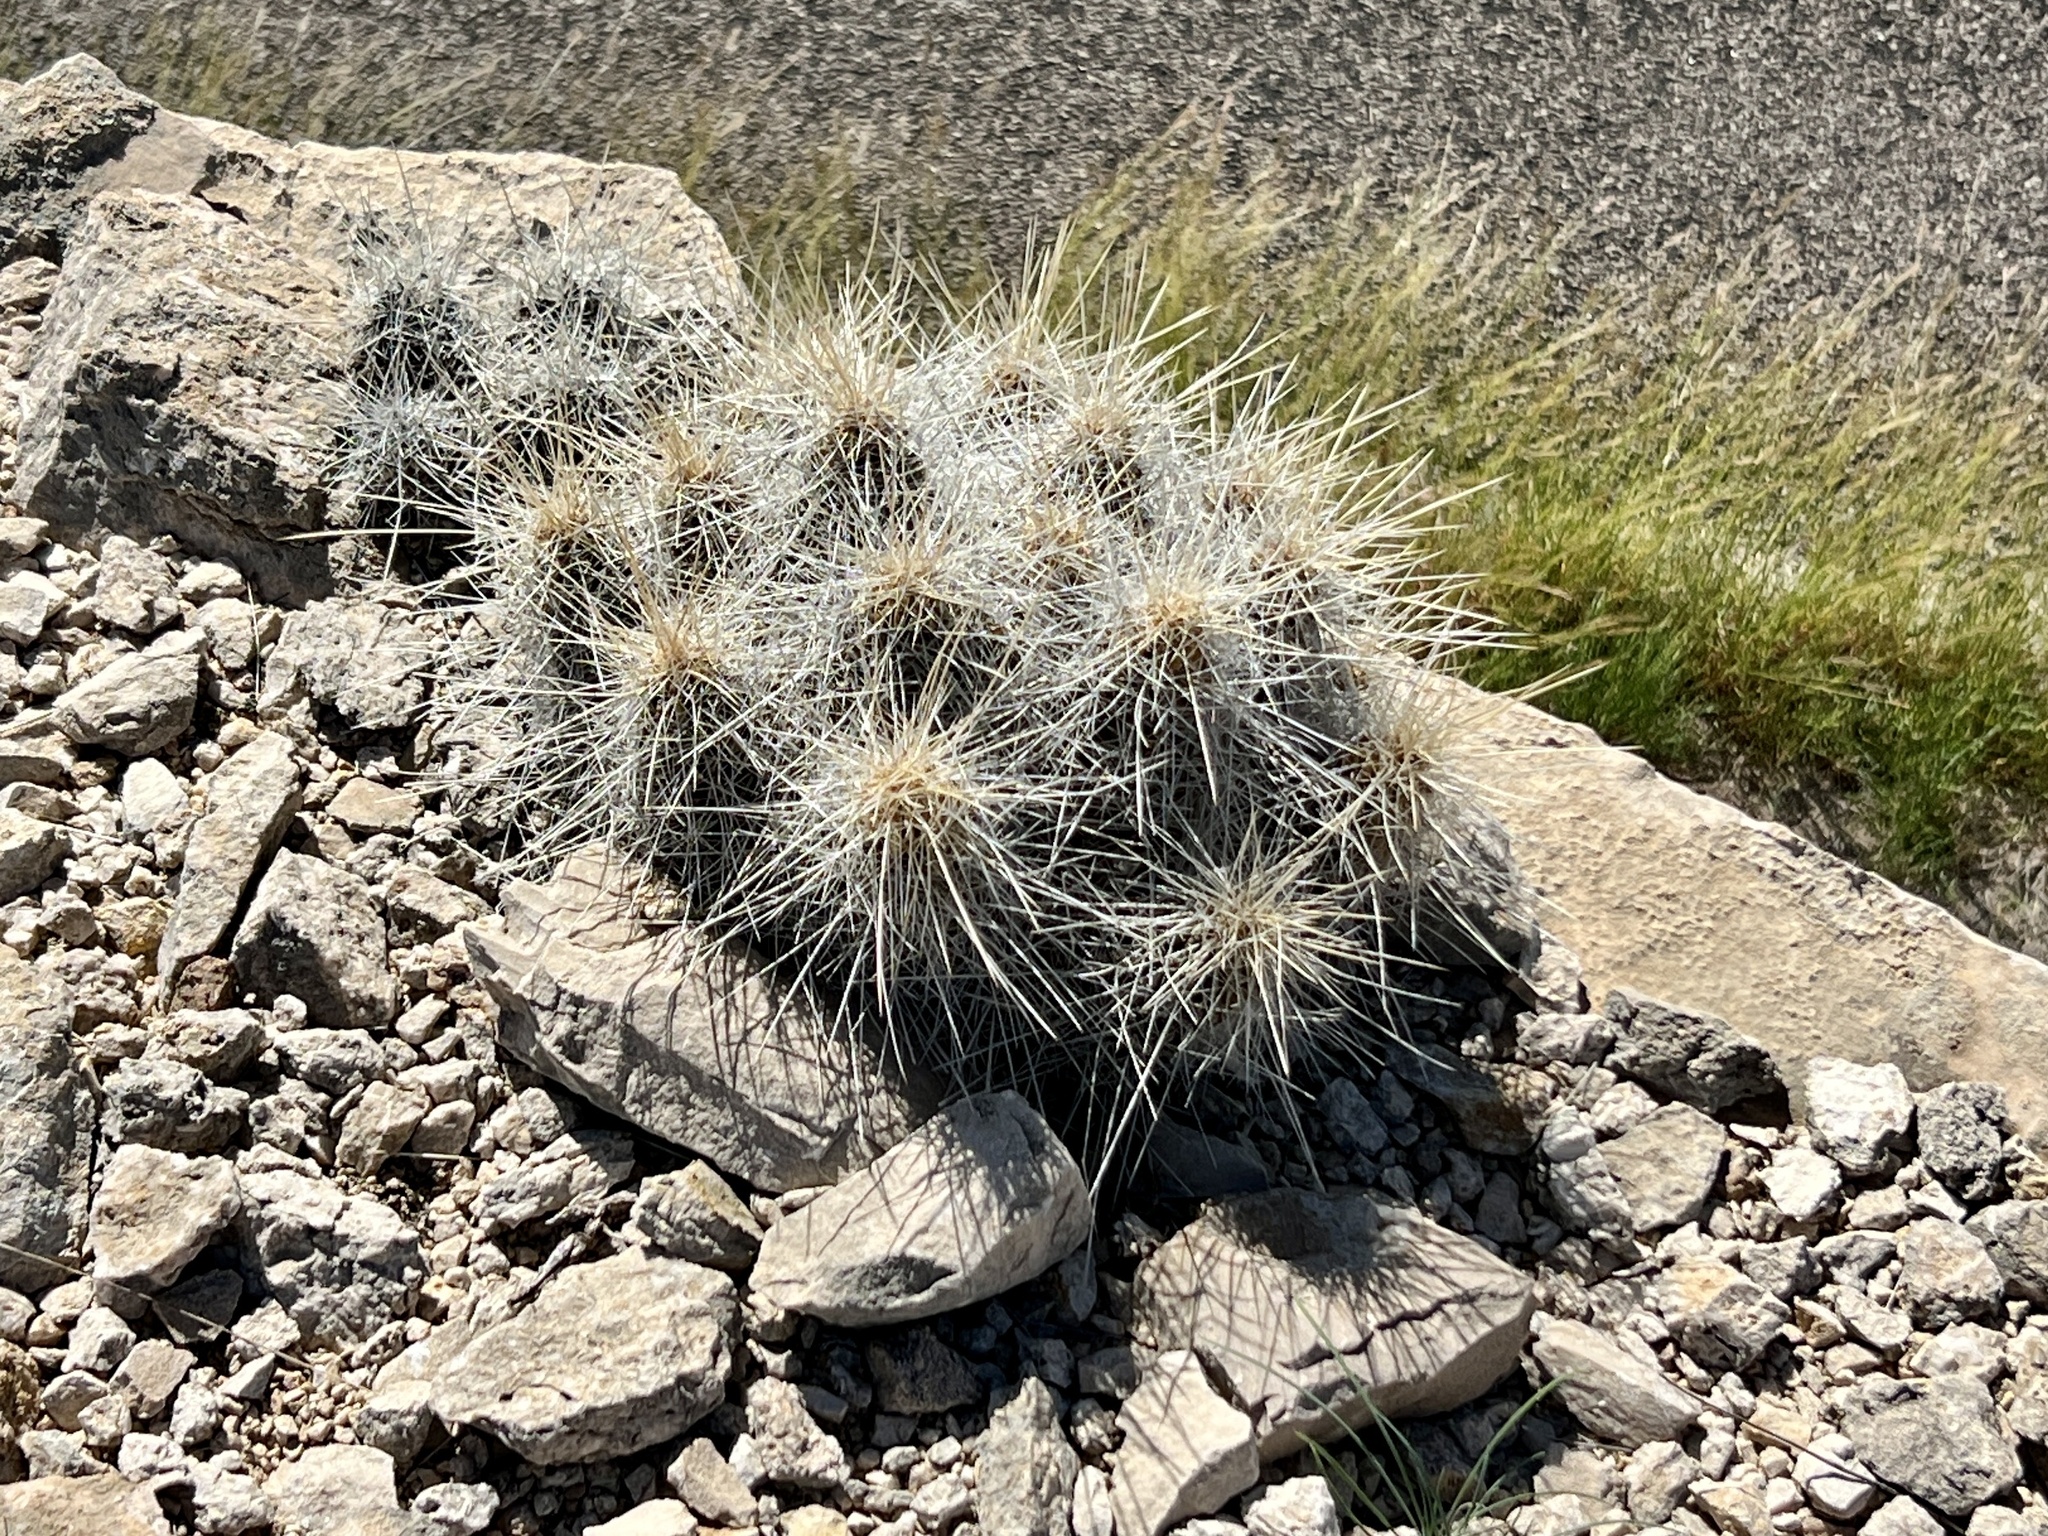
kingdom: Plantae
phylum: Tracheophyta
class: Magnoliopsida
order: Caryophyllales
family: Cactaceae
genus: Echinocereus
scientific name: Echinocereus stramineus
